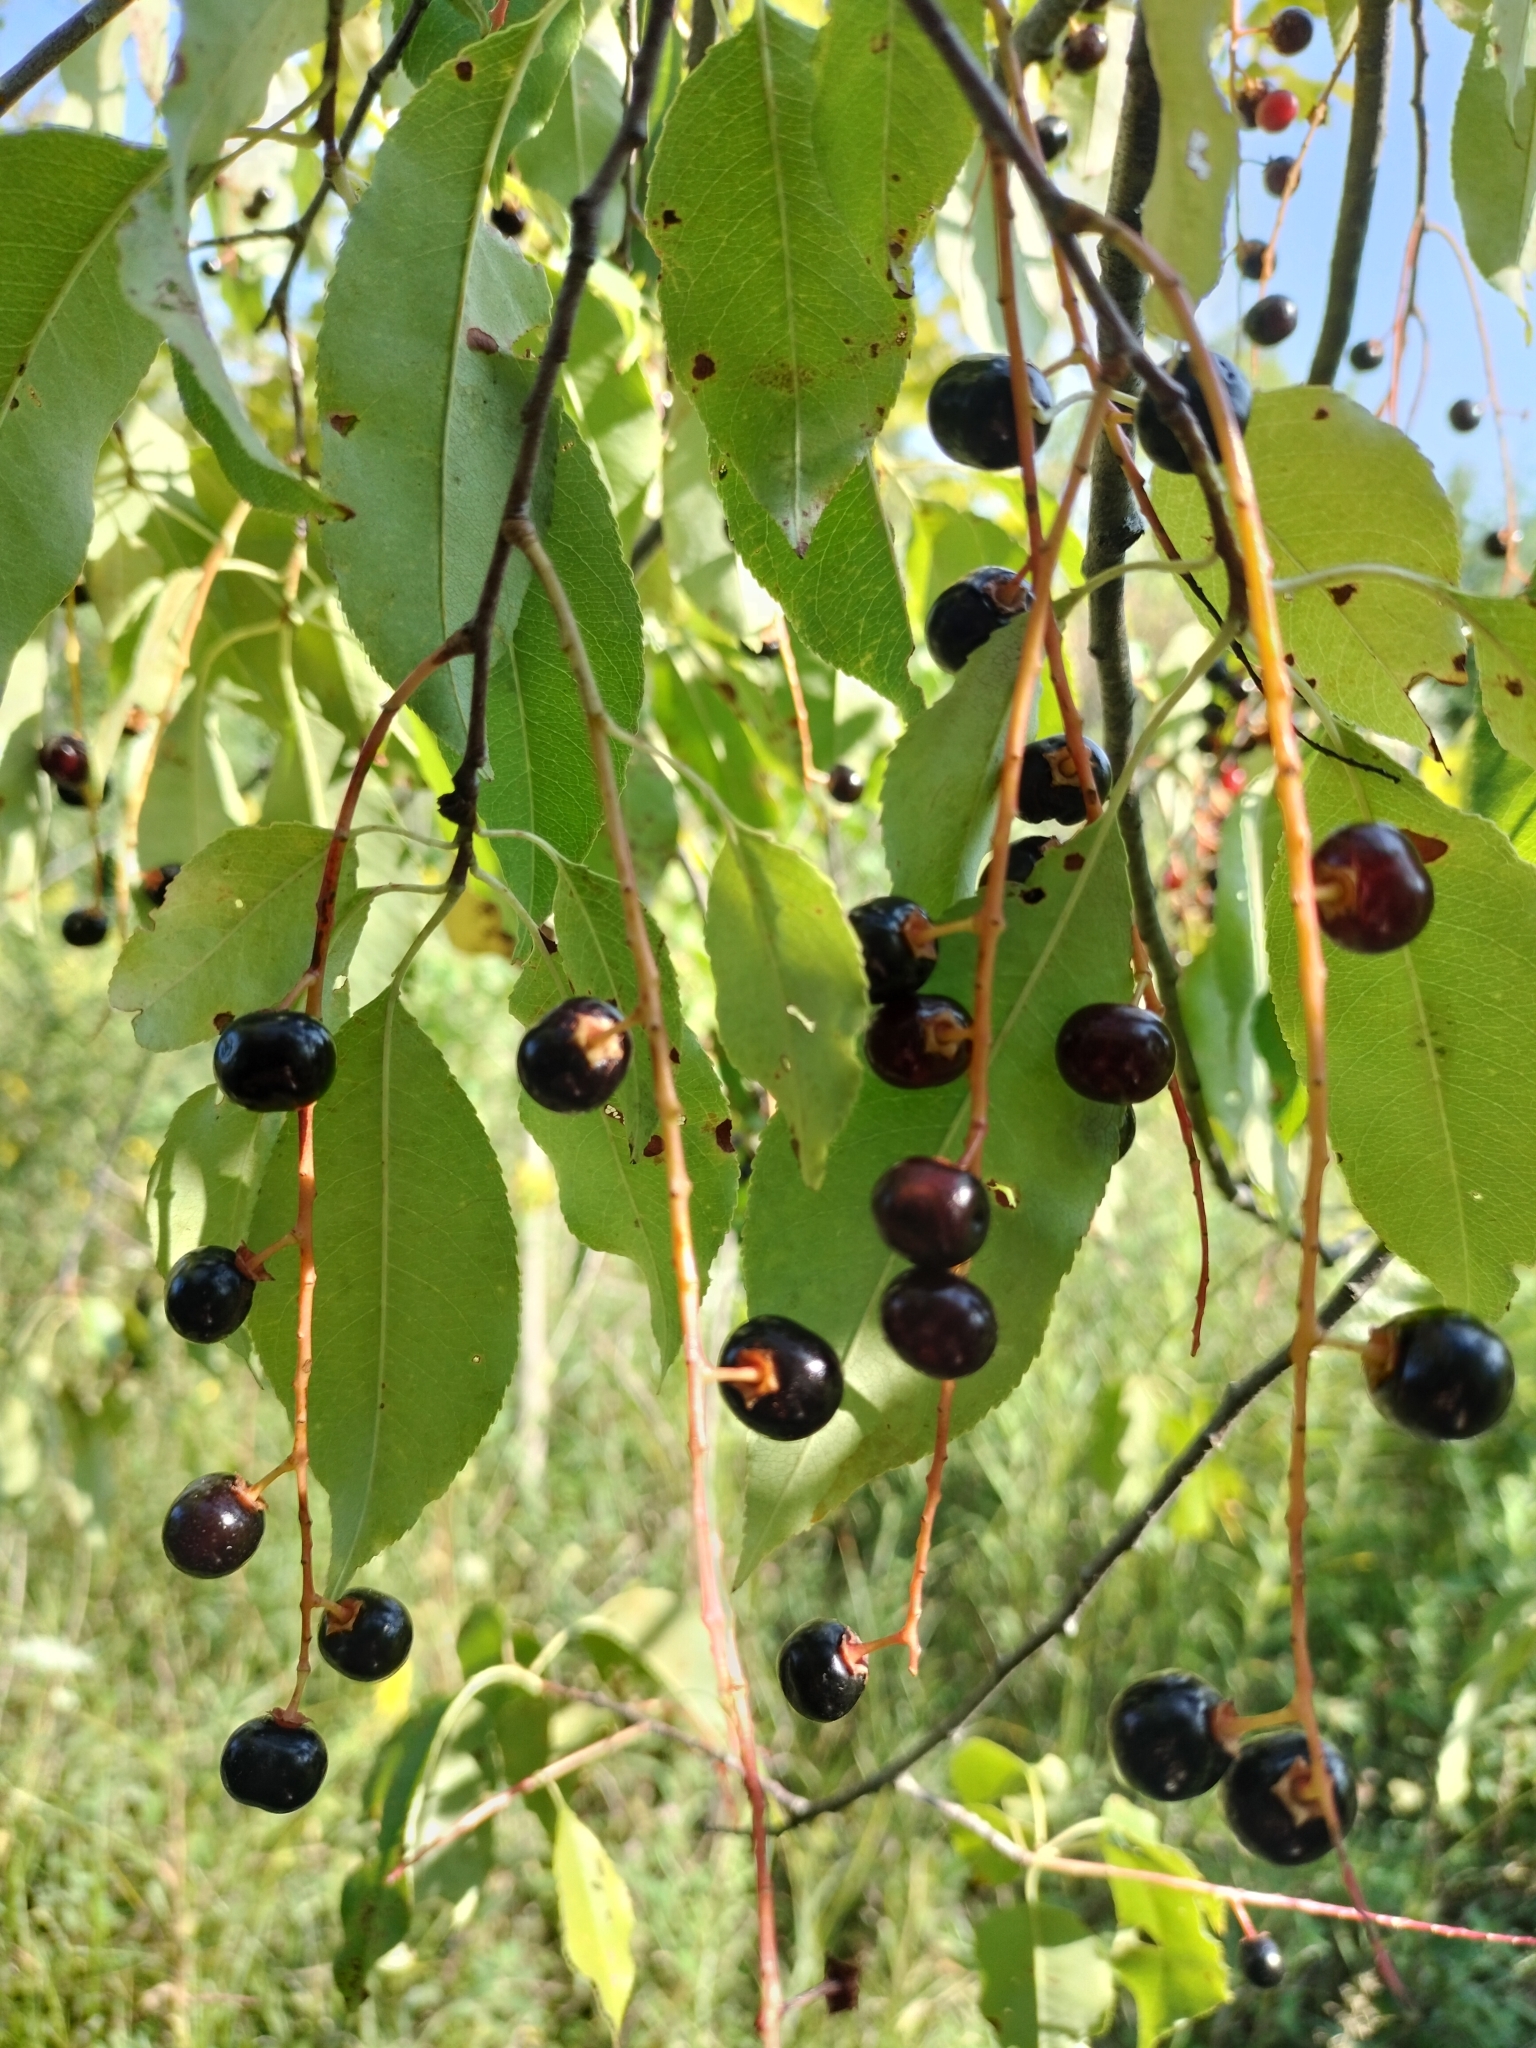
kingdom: Plantae
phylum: Tracheophyta
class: Magnoliopsida
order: Rosales
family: Rosaceae
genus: Prunus
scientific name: Prunus serotina
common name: Black cherry
